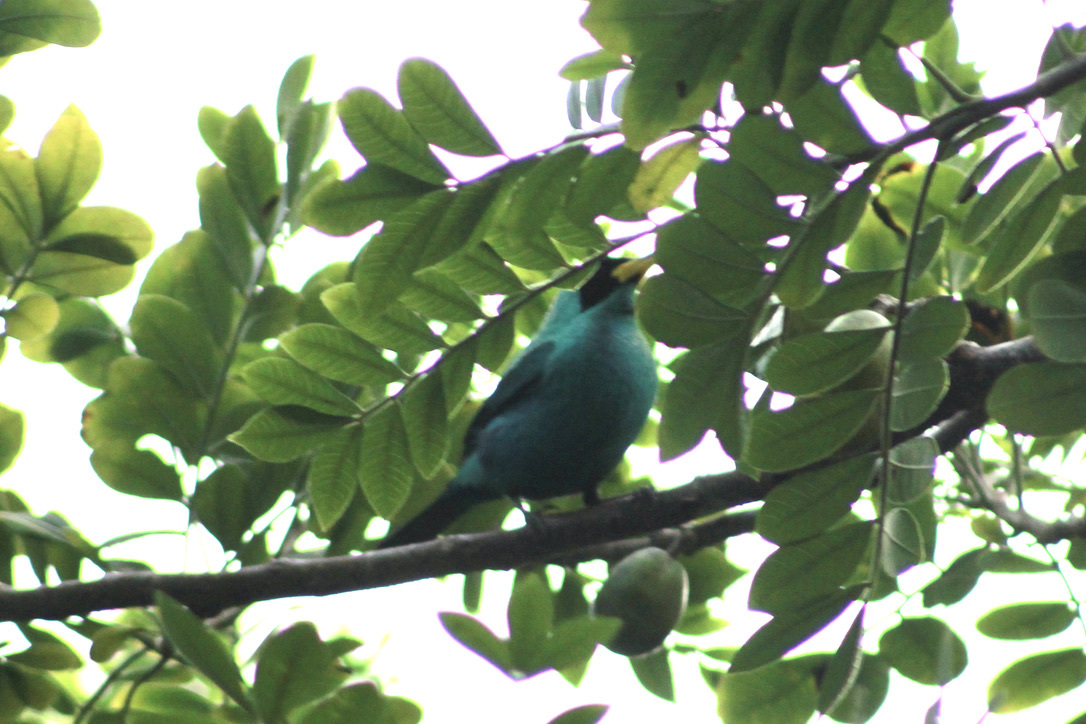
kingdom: Animalia
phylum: Chordata
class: Aves
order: Passeriformes
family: Thraupidae
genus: Chlorophanes
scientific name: Chlorophanes spiza
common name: Green honeycreeper
